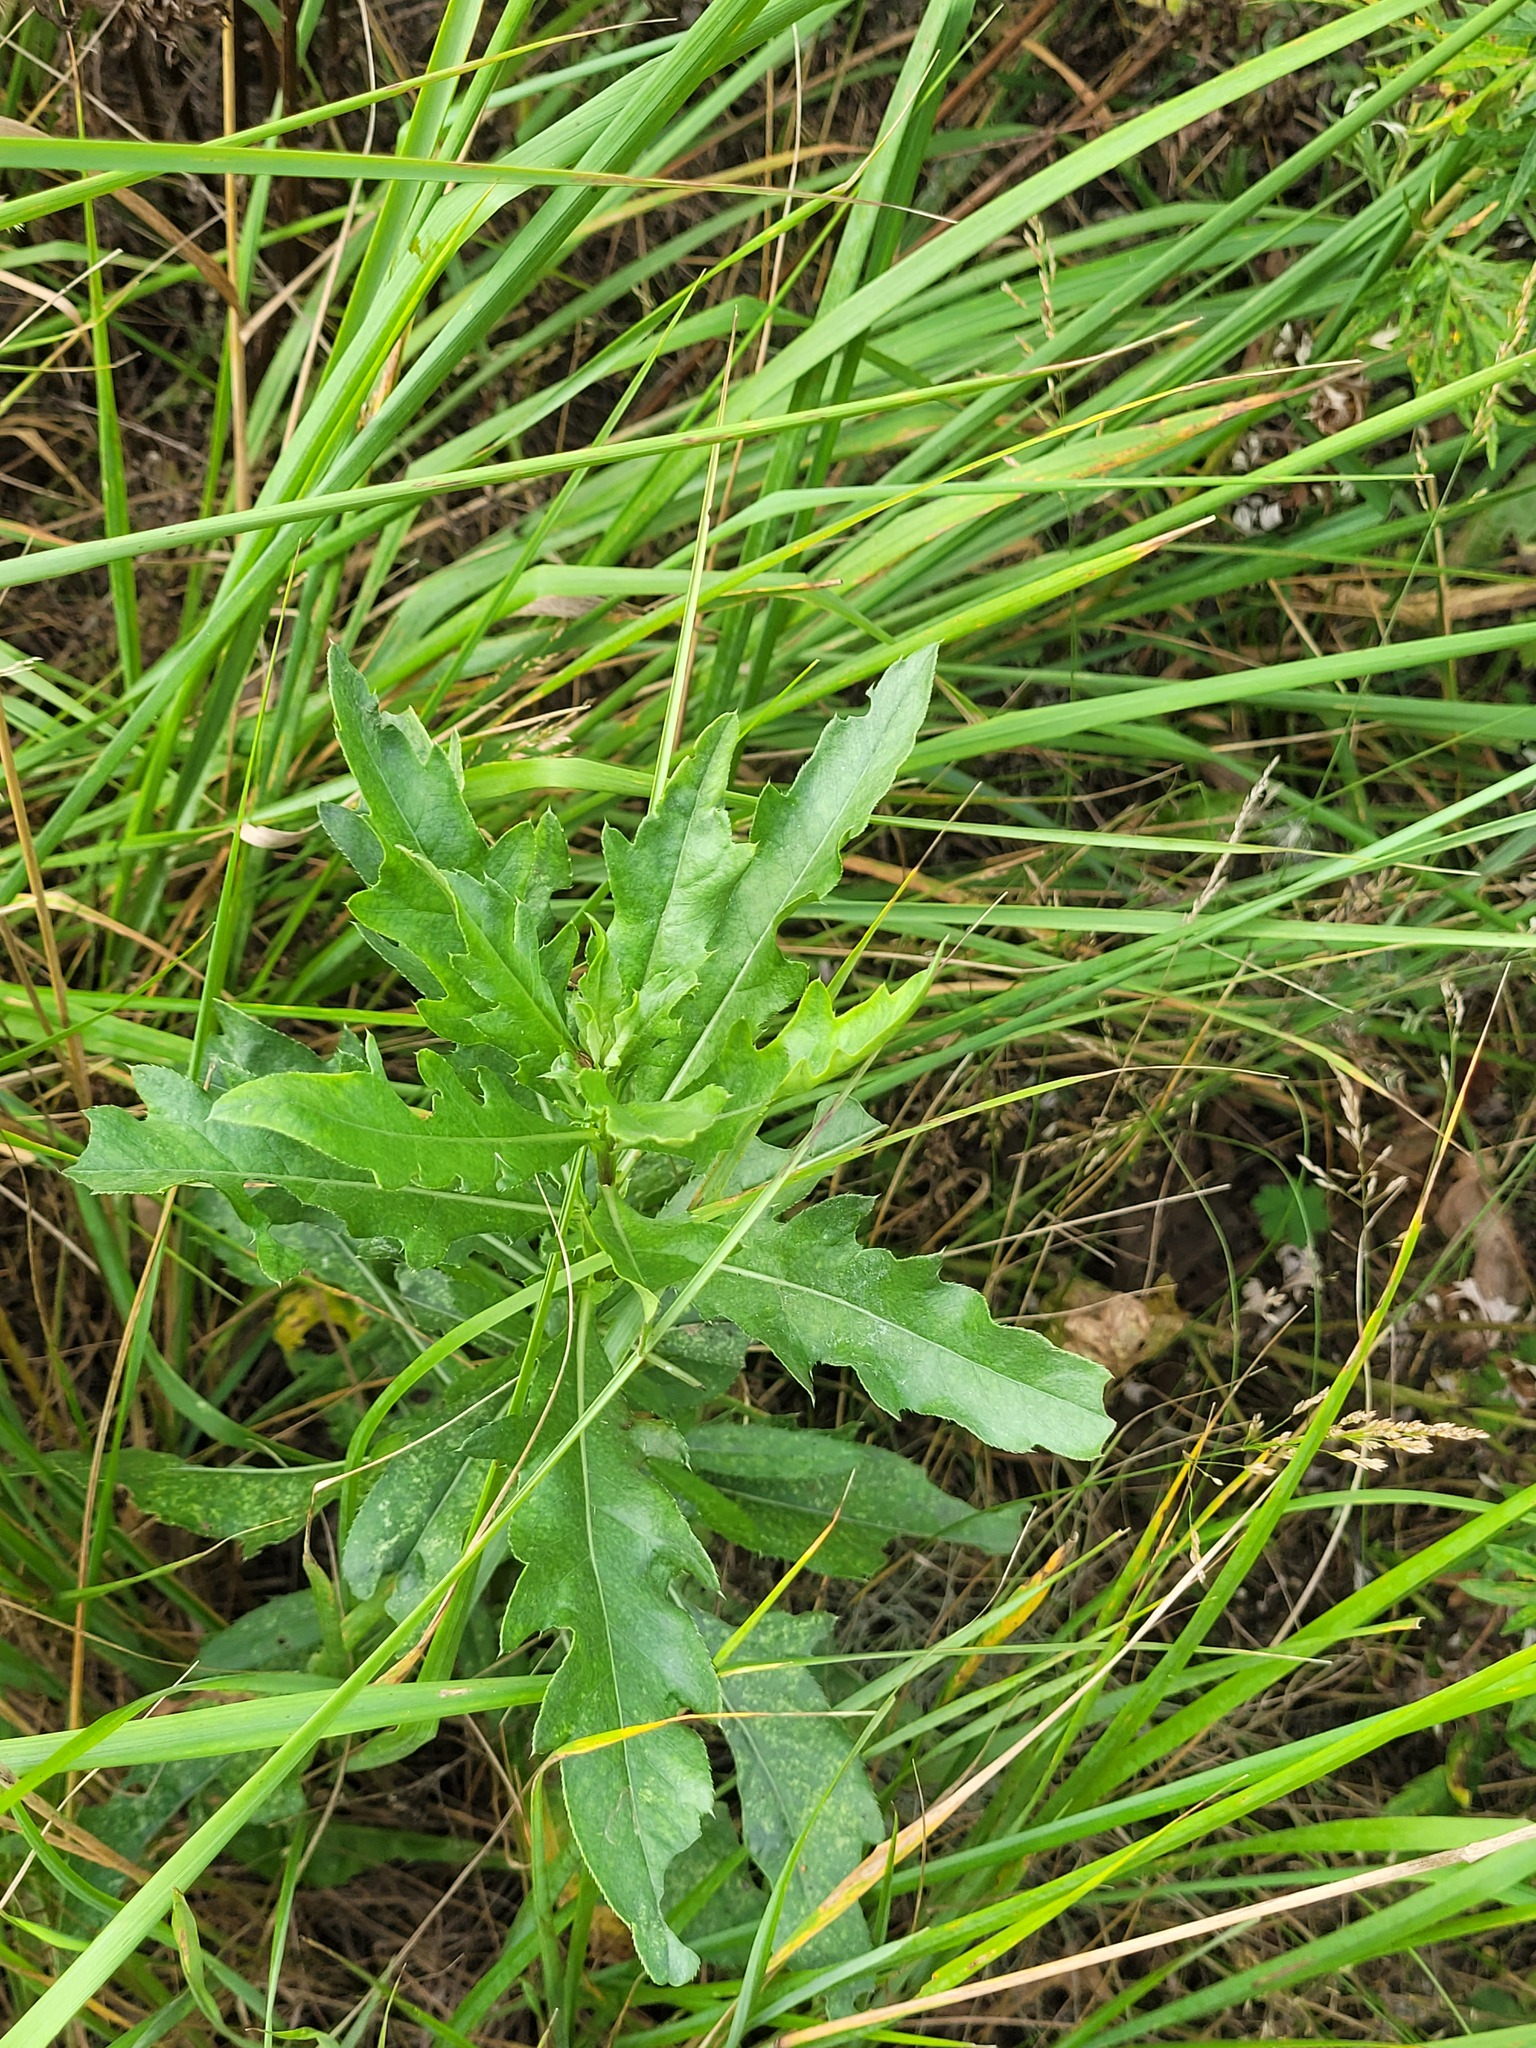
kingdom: Plantae
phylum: Tracheophyta
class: Magnoliopsida
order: Asterales
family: Asteraceae
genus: Cirsium
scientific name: Cirsium arvense
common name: Creeping thistle
